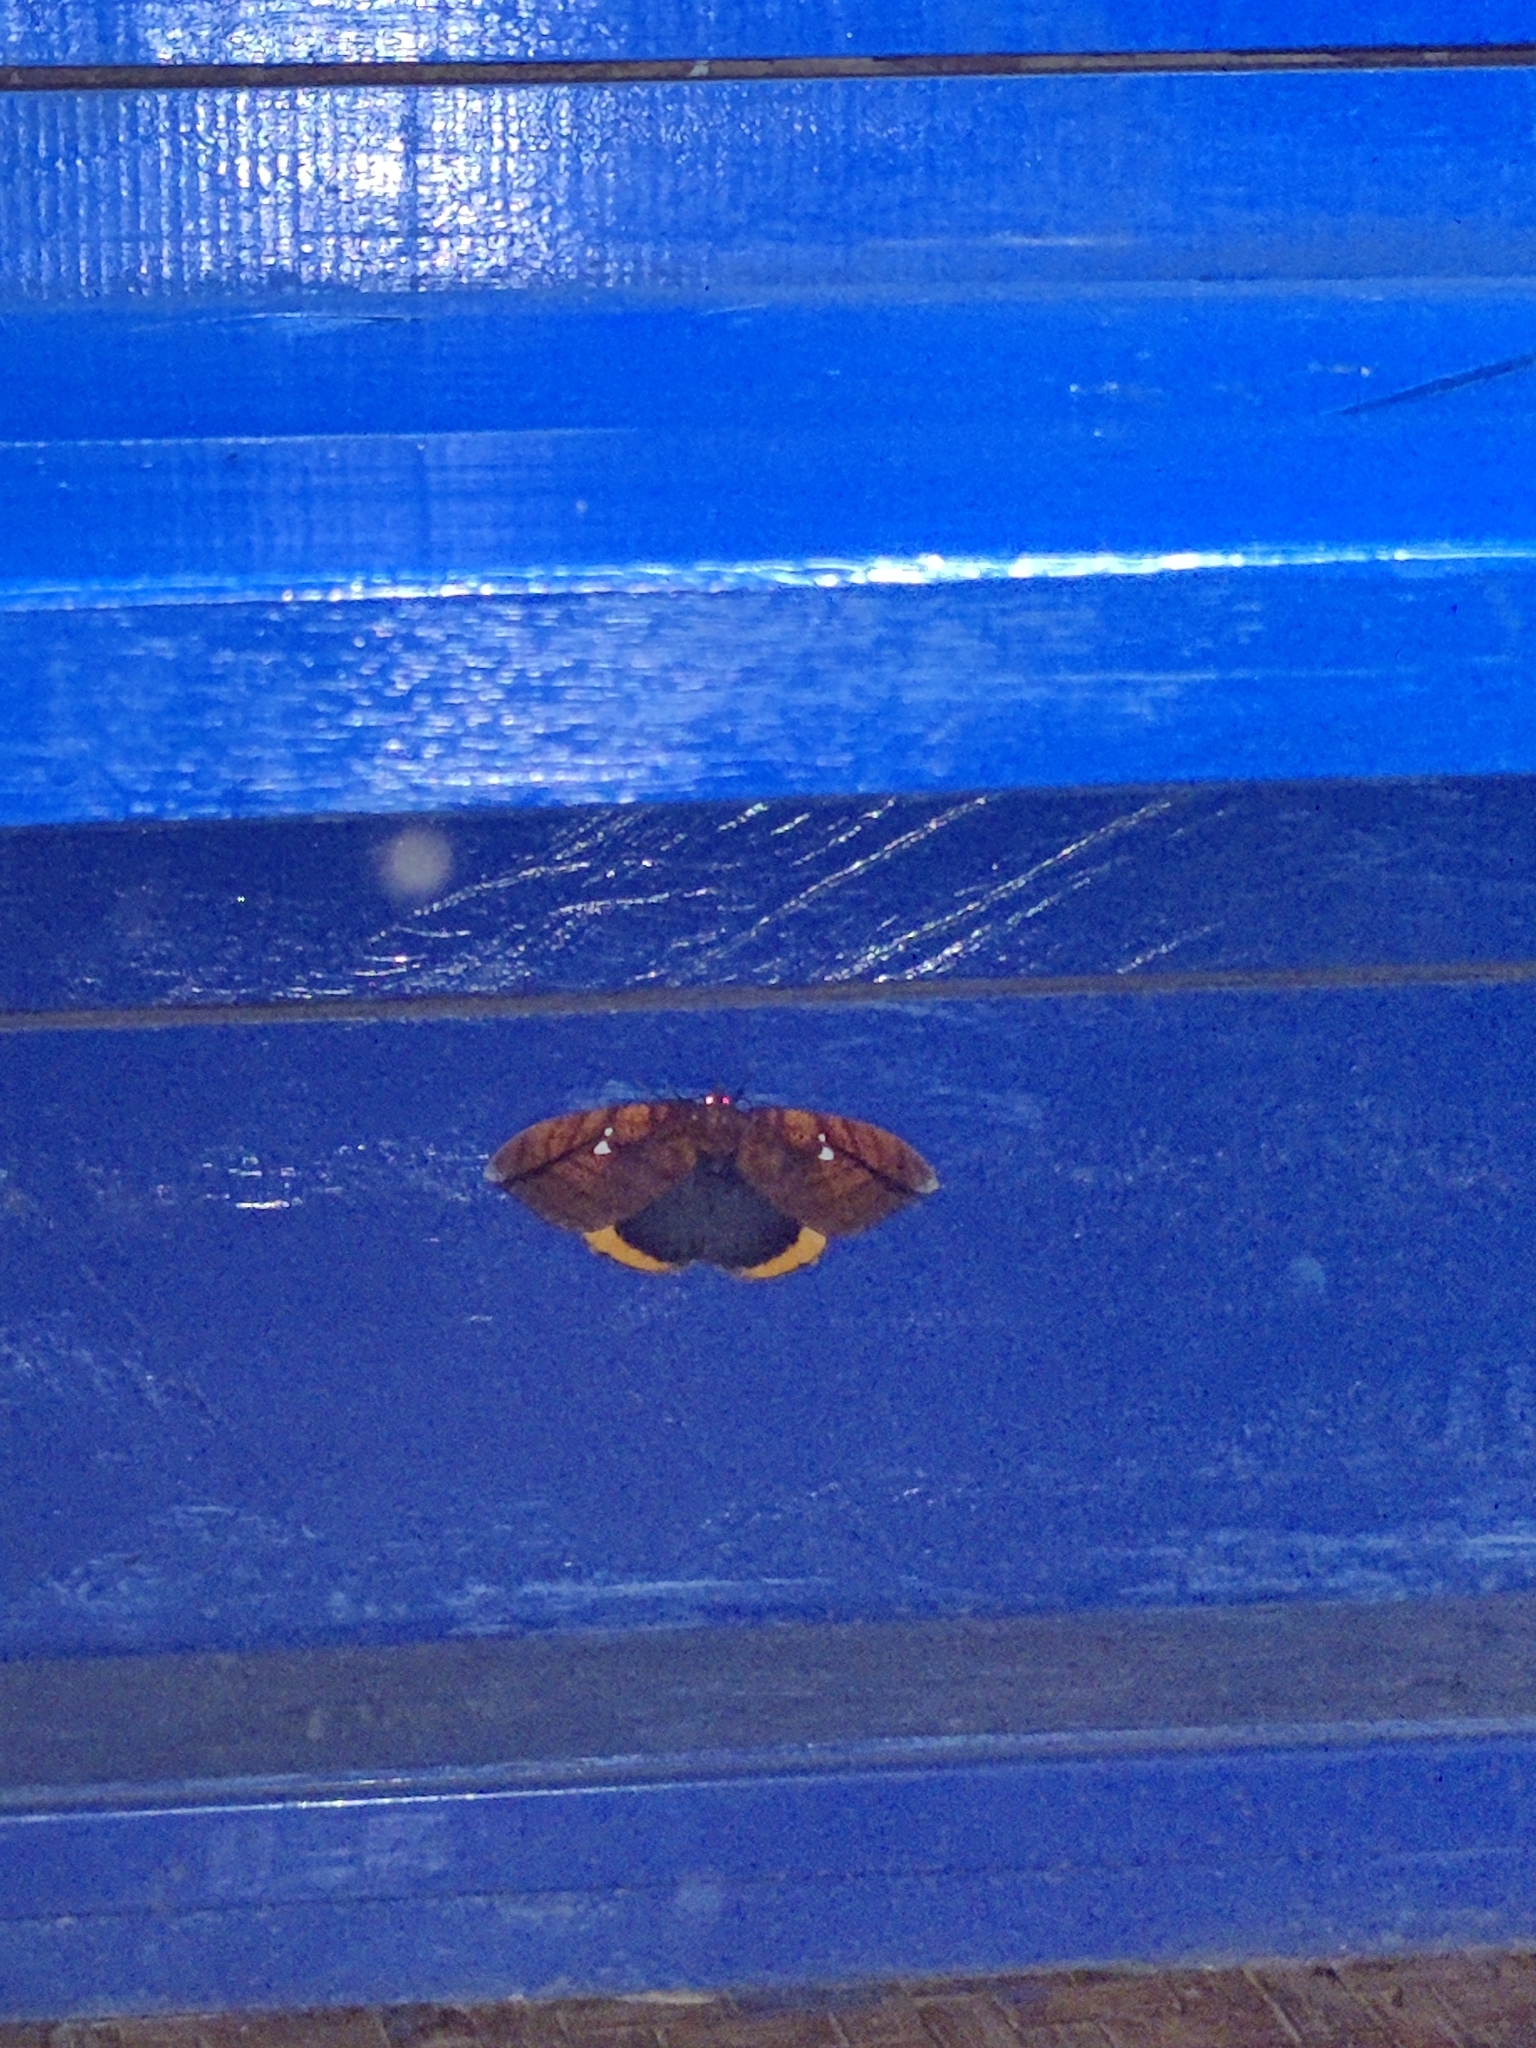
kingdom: Animalia
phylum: Arthropoda
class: Insecta
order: Lepidoptera
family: Erebidae
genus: Gloriana
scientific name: Gloriana ornata
